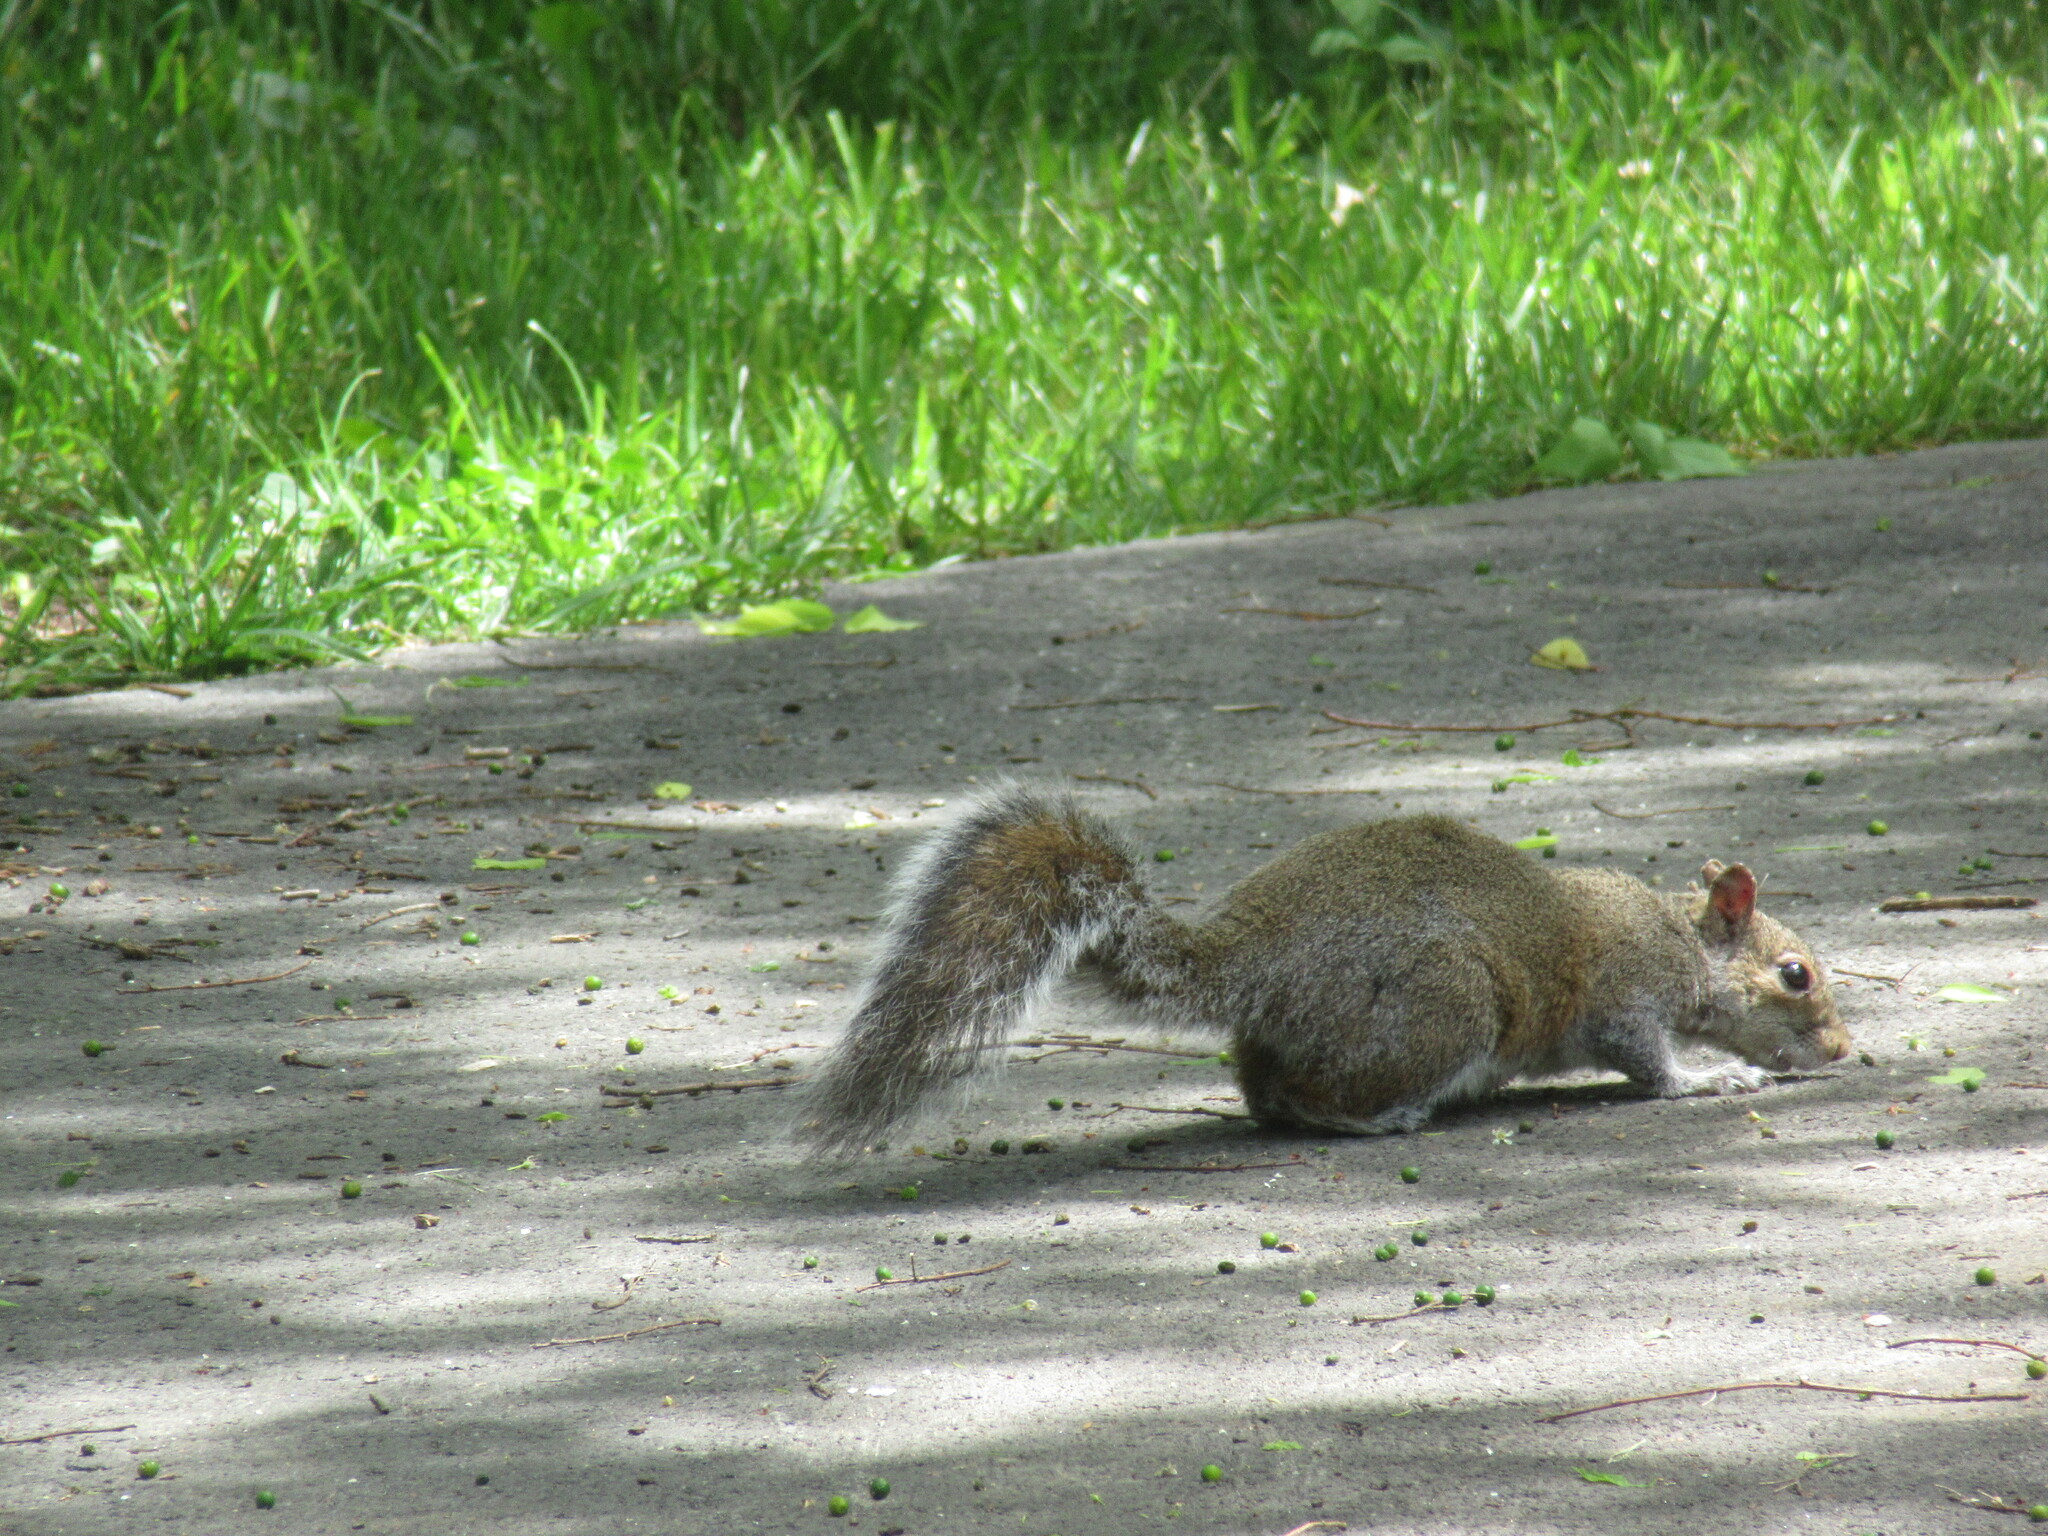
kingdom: Animalia
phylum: Chordata
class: Mammalia
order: Rodentia
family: Sciuridae
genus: Sciurus
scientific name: Sciurus carolinensis
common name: Eastern gray squirrel
